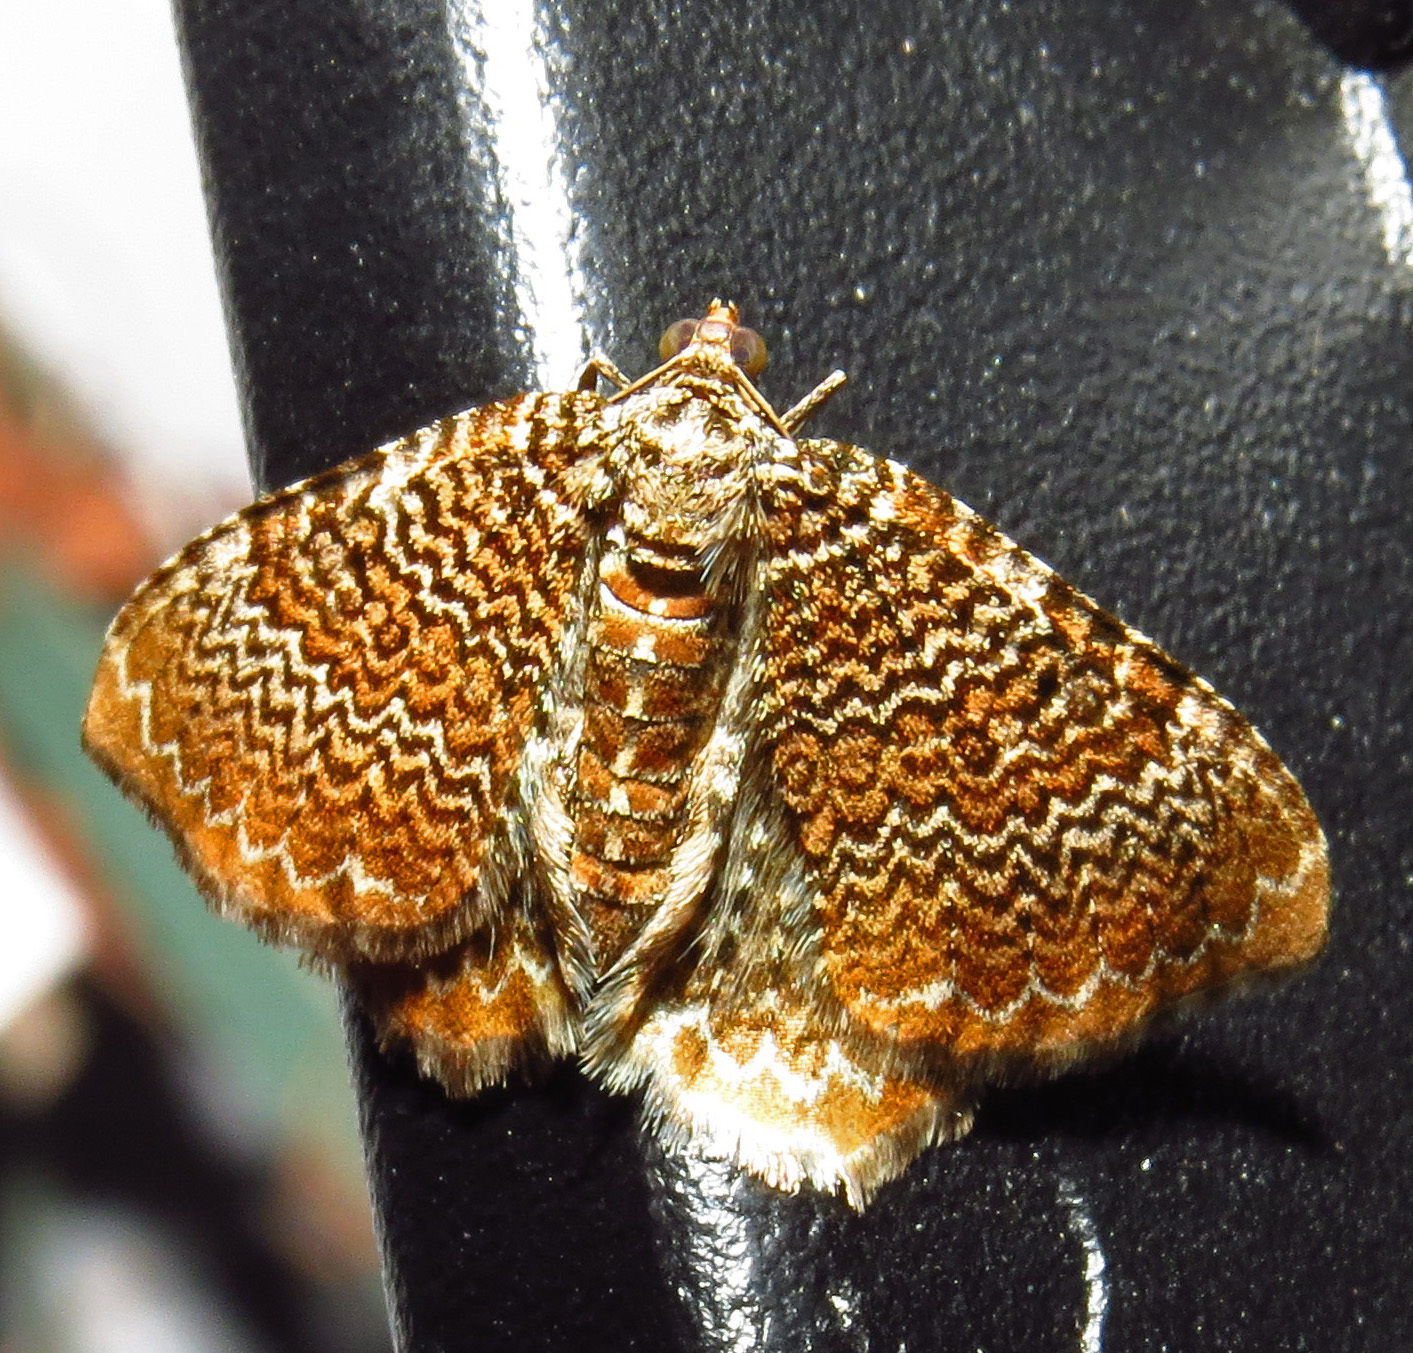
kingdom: Animalia
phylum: Arthropoda
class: Insecta
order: Lepidoptera
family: Geometridae
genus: Rheumaptera
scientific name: Rheumaptera prunivorata
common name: Cherry scallop shell moth
